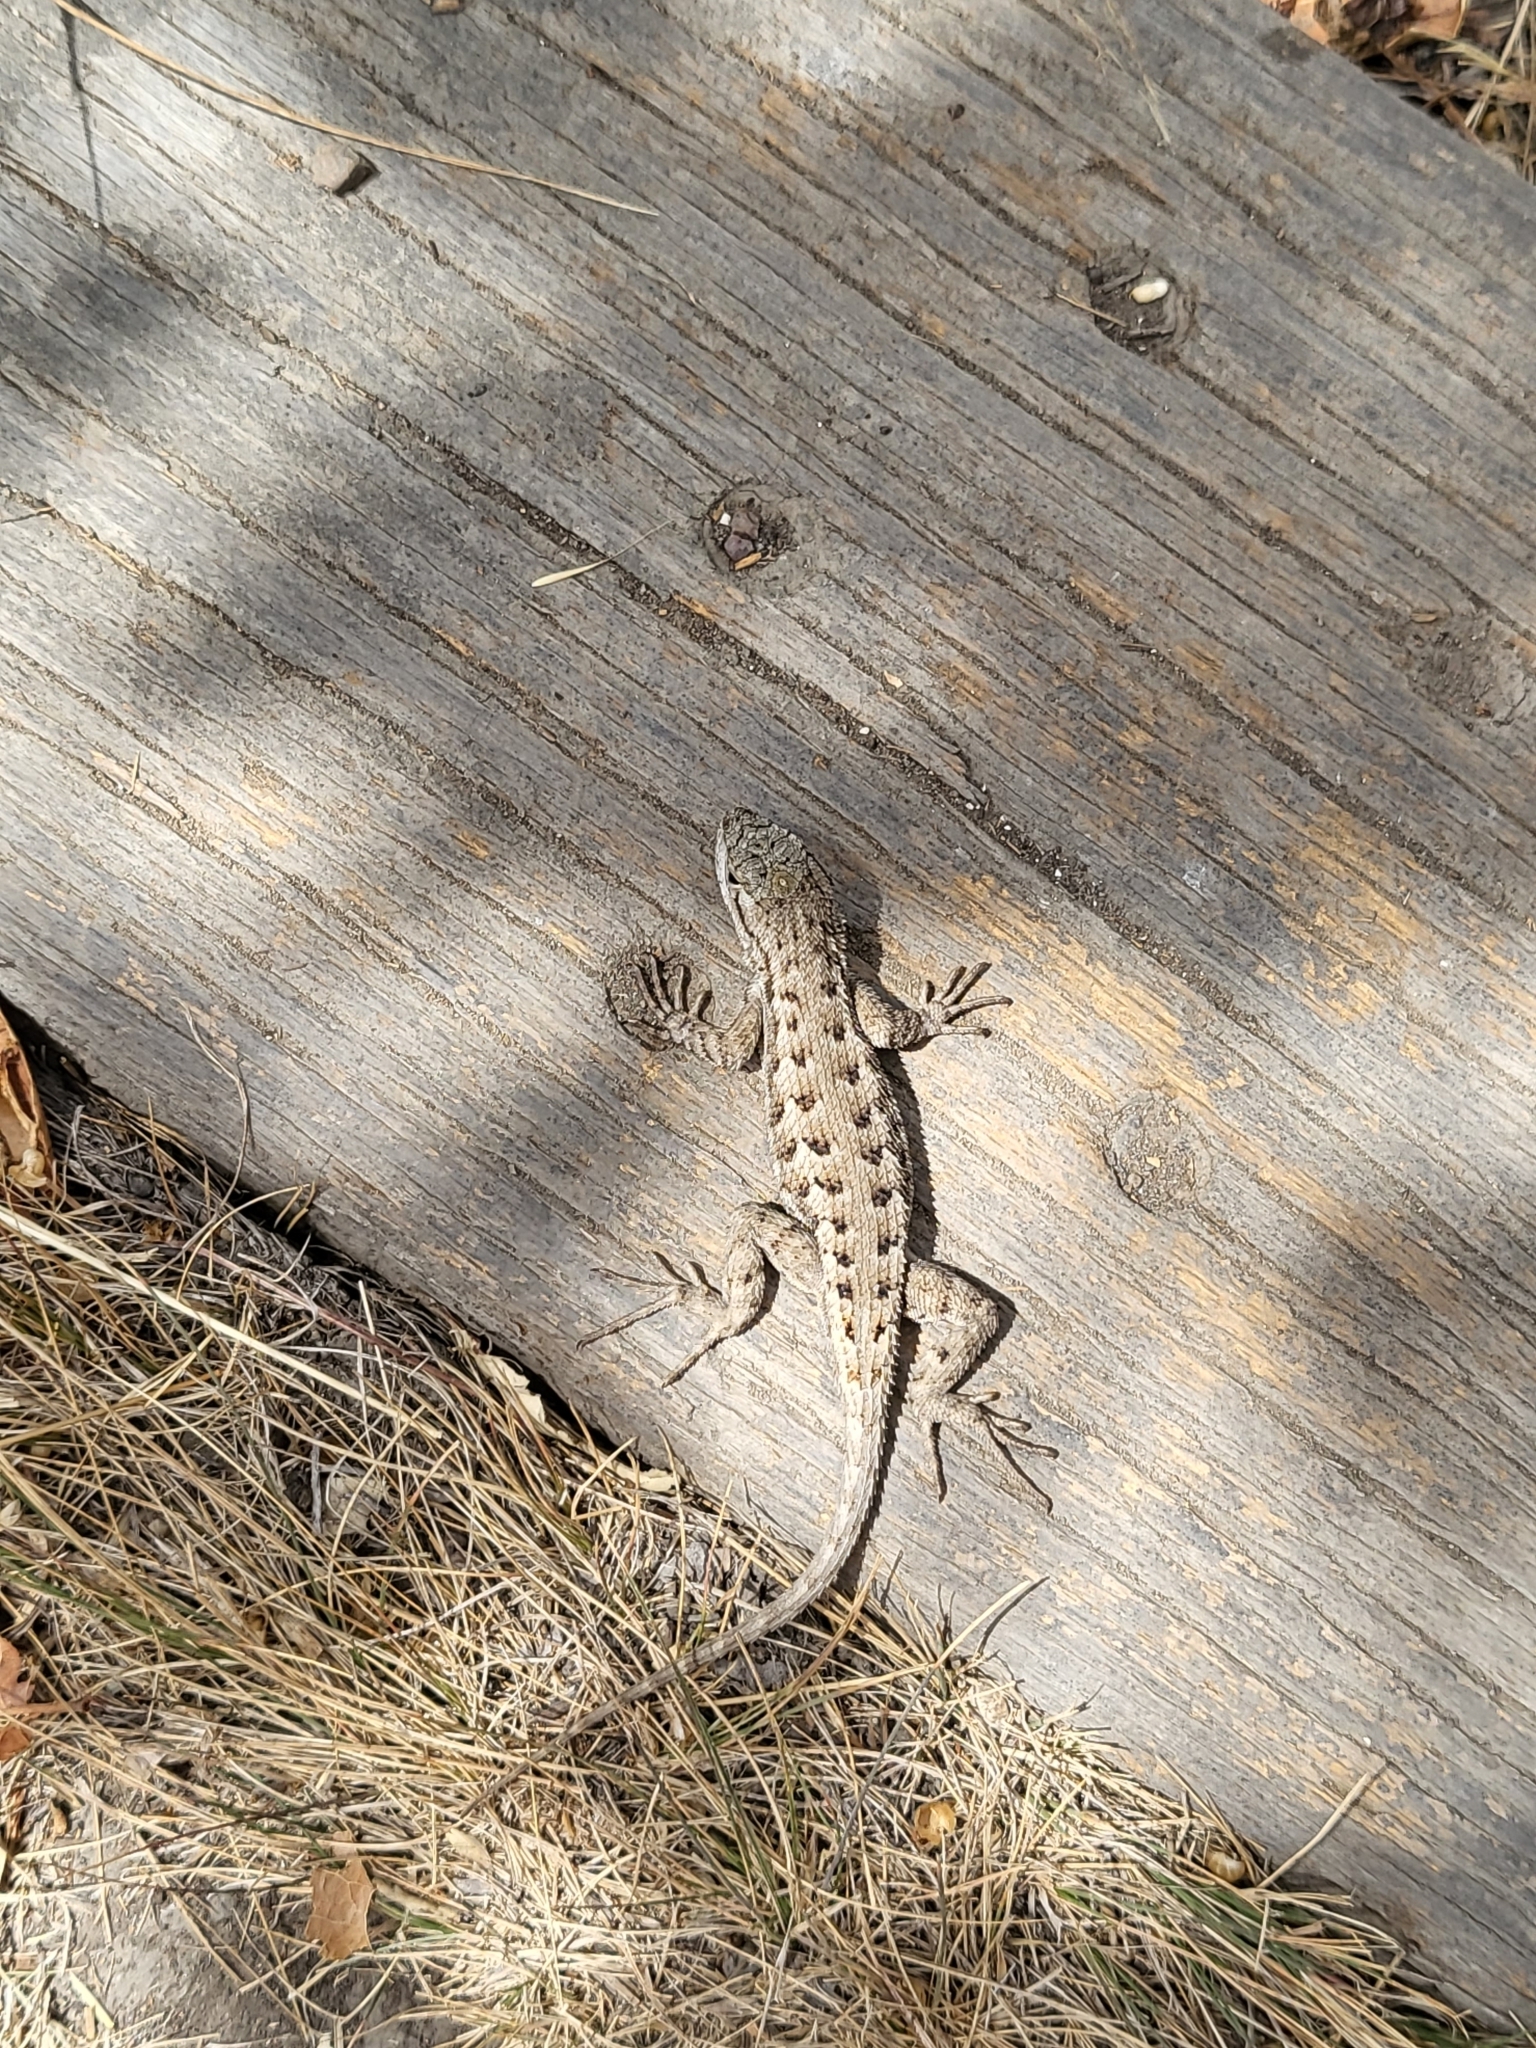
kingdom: Animalia
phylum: Chordata
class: Squamata
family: Phrynosomatidae
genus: Sceloporus
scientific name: Sceloporus occidentalis
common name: Western fence lizard
